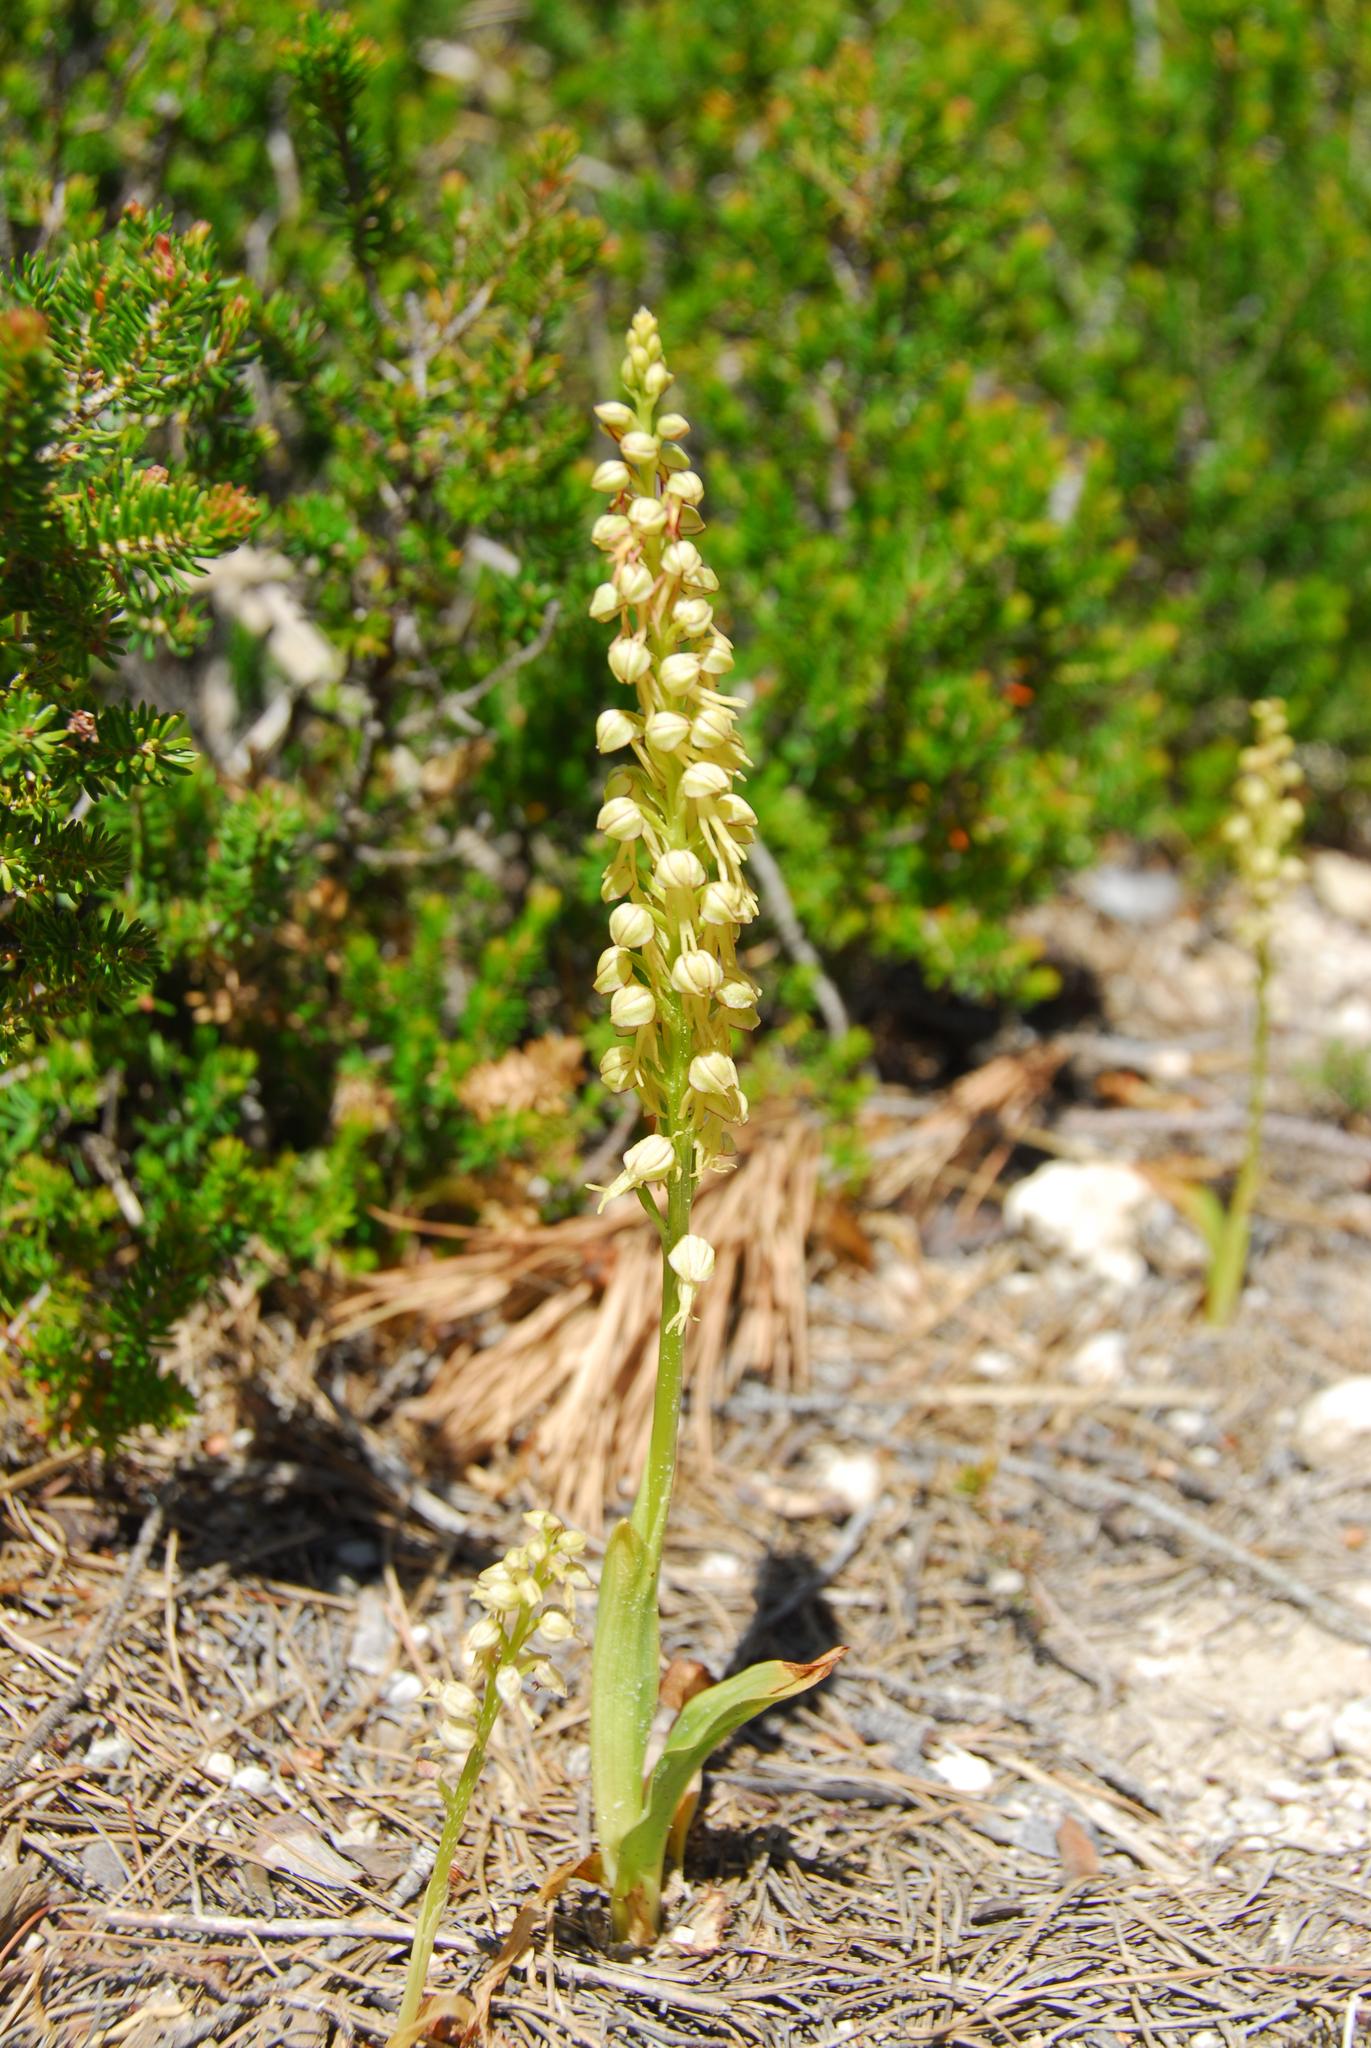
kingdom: Plantae
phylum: Tracheophyta
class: Liliopsida
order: Asparagales
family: Orchidaceae
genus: Orchis
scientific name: Orchis anthropophora
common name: Man orchid
